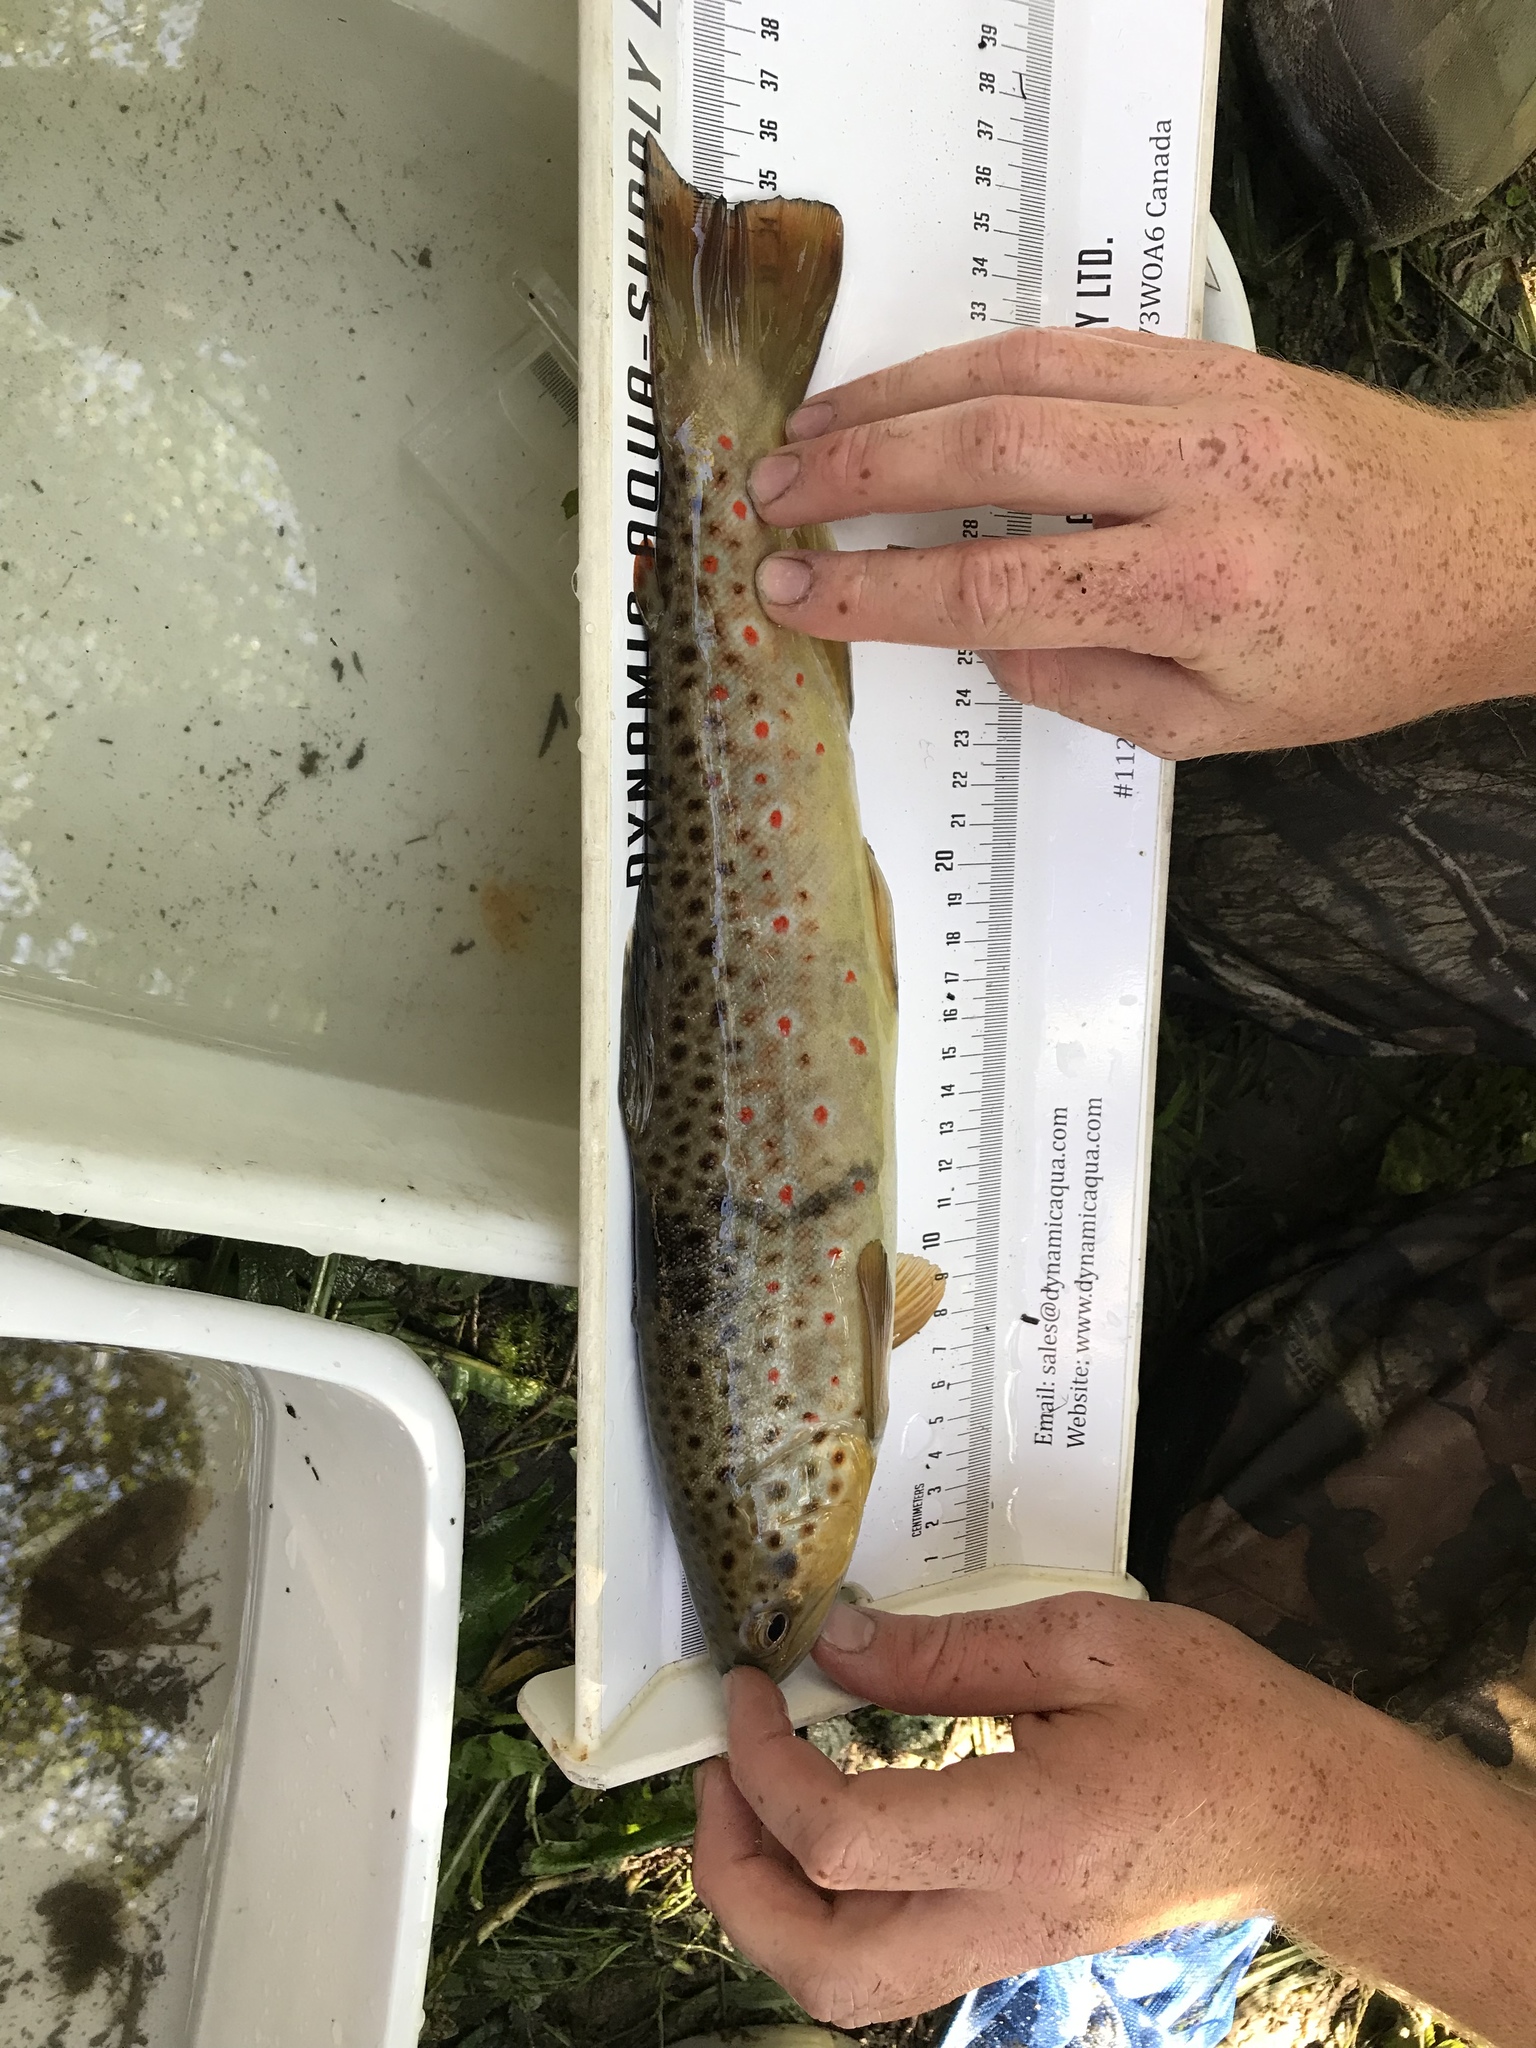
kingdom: Animalia
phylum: Chordata
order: Salmoniformes
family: Salmonidae
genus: Salmo
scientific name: Salmo trutta
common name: Brown trout
